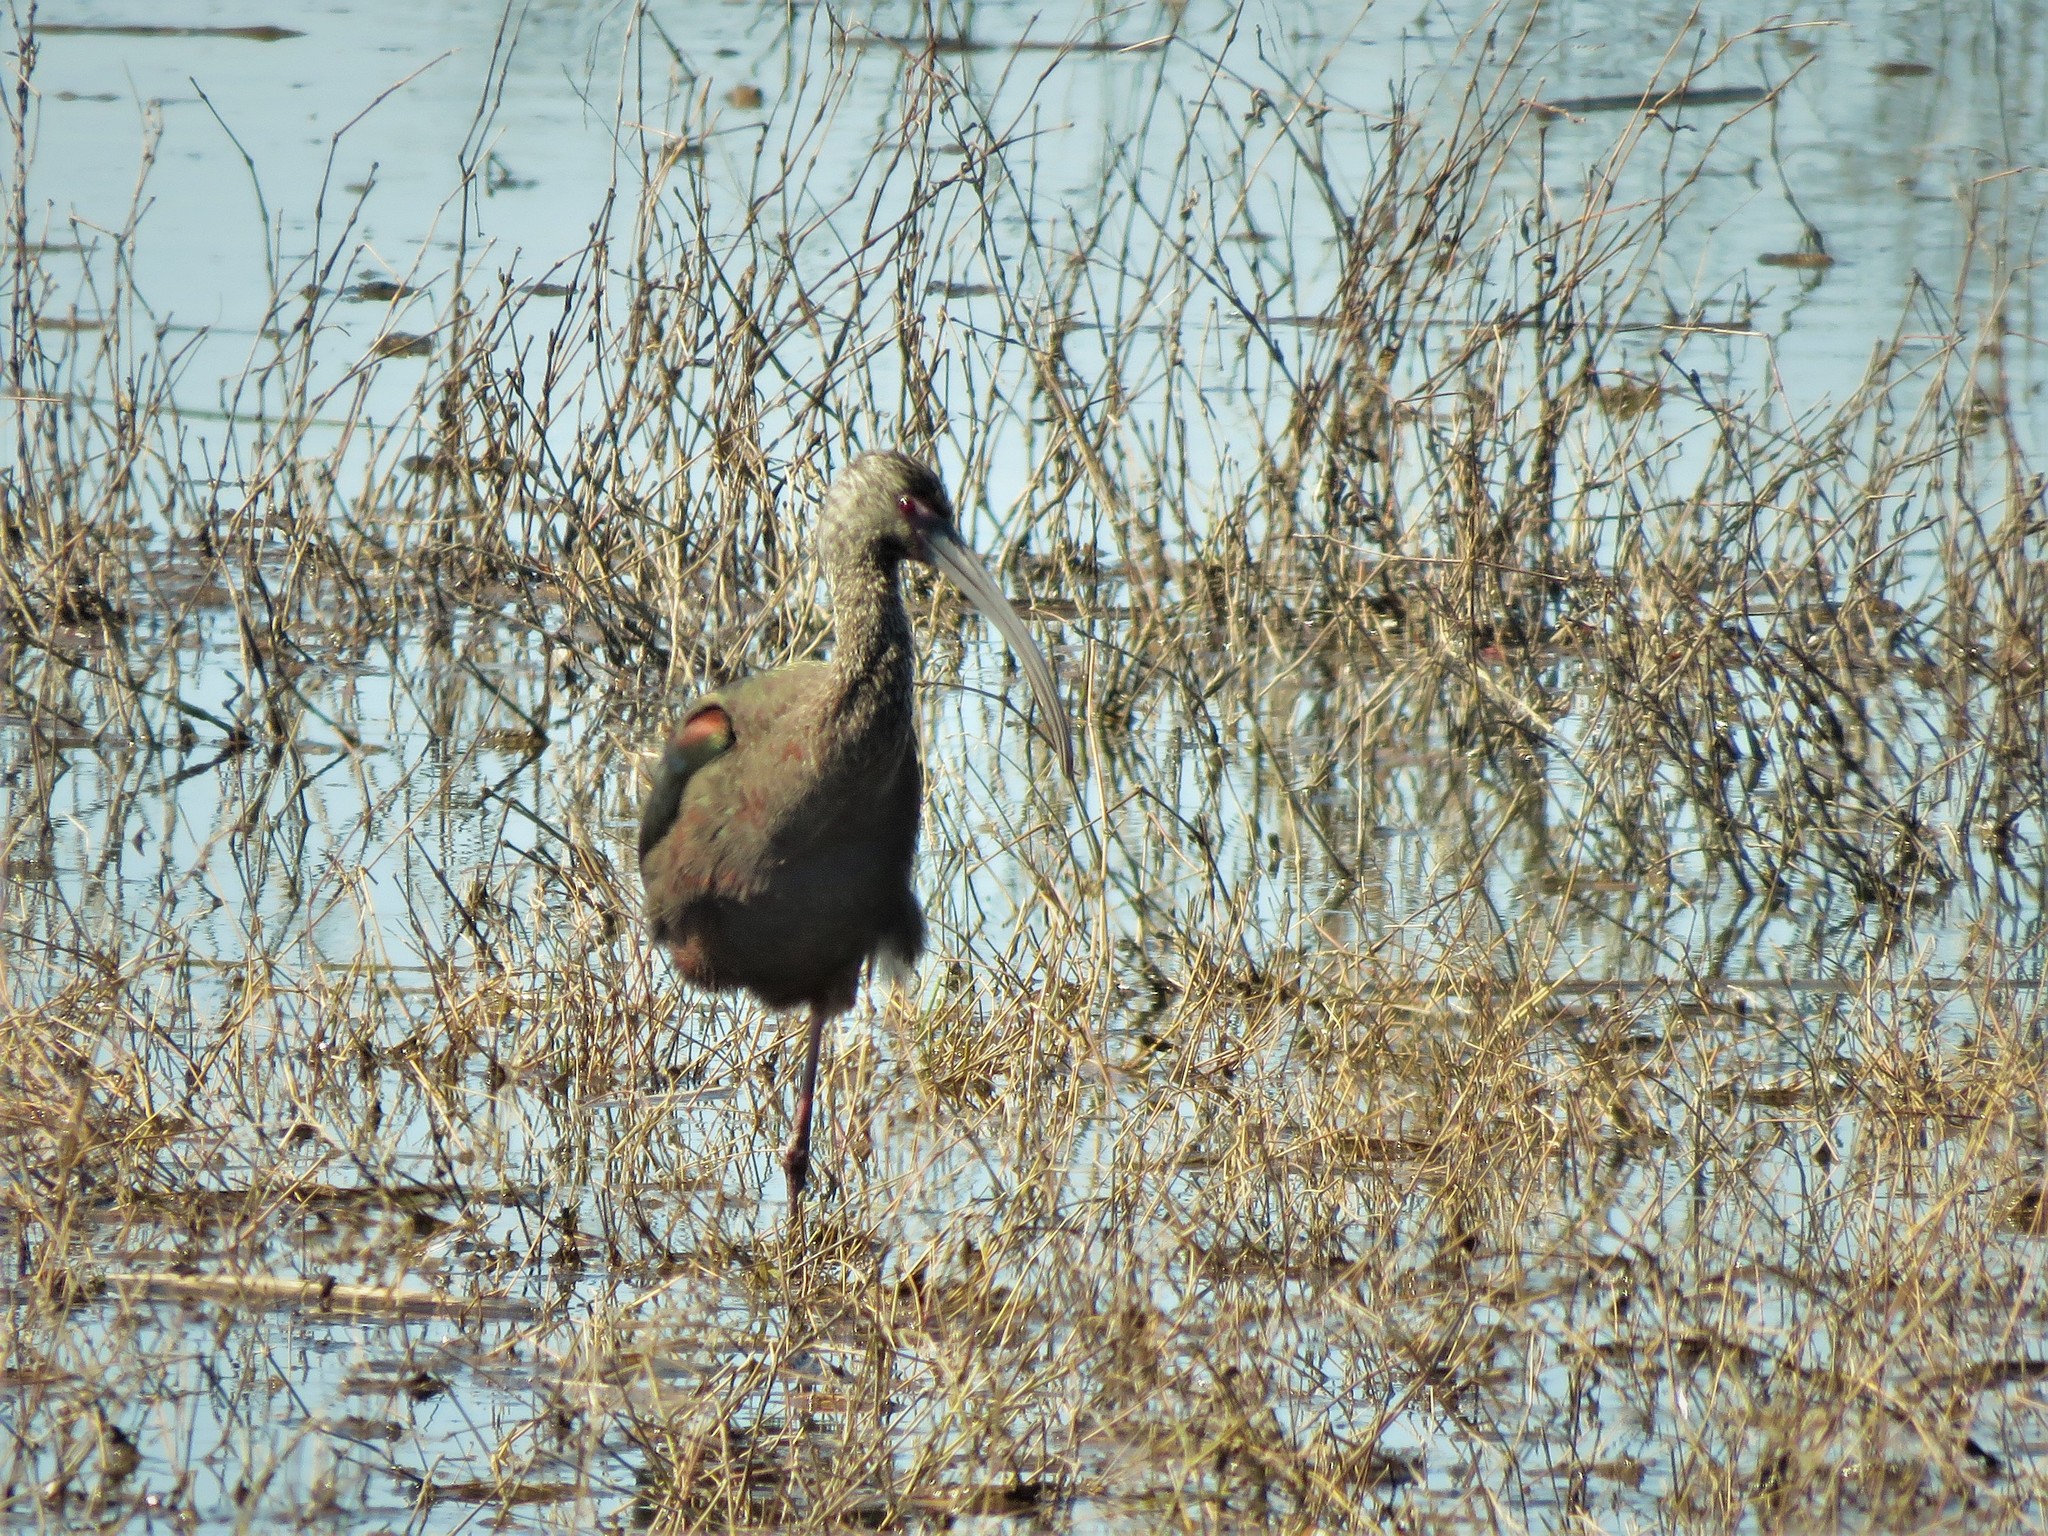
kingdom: Animalia
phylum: Chordata
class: Aves
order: Pelecaniformes
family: Threskiornithidae
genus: Plegadis
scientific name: Plegadis chihi
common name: White-faced ibis
